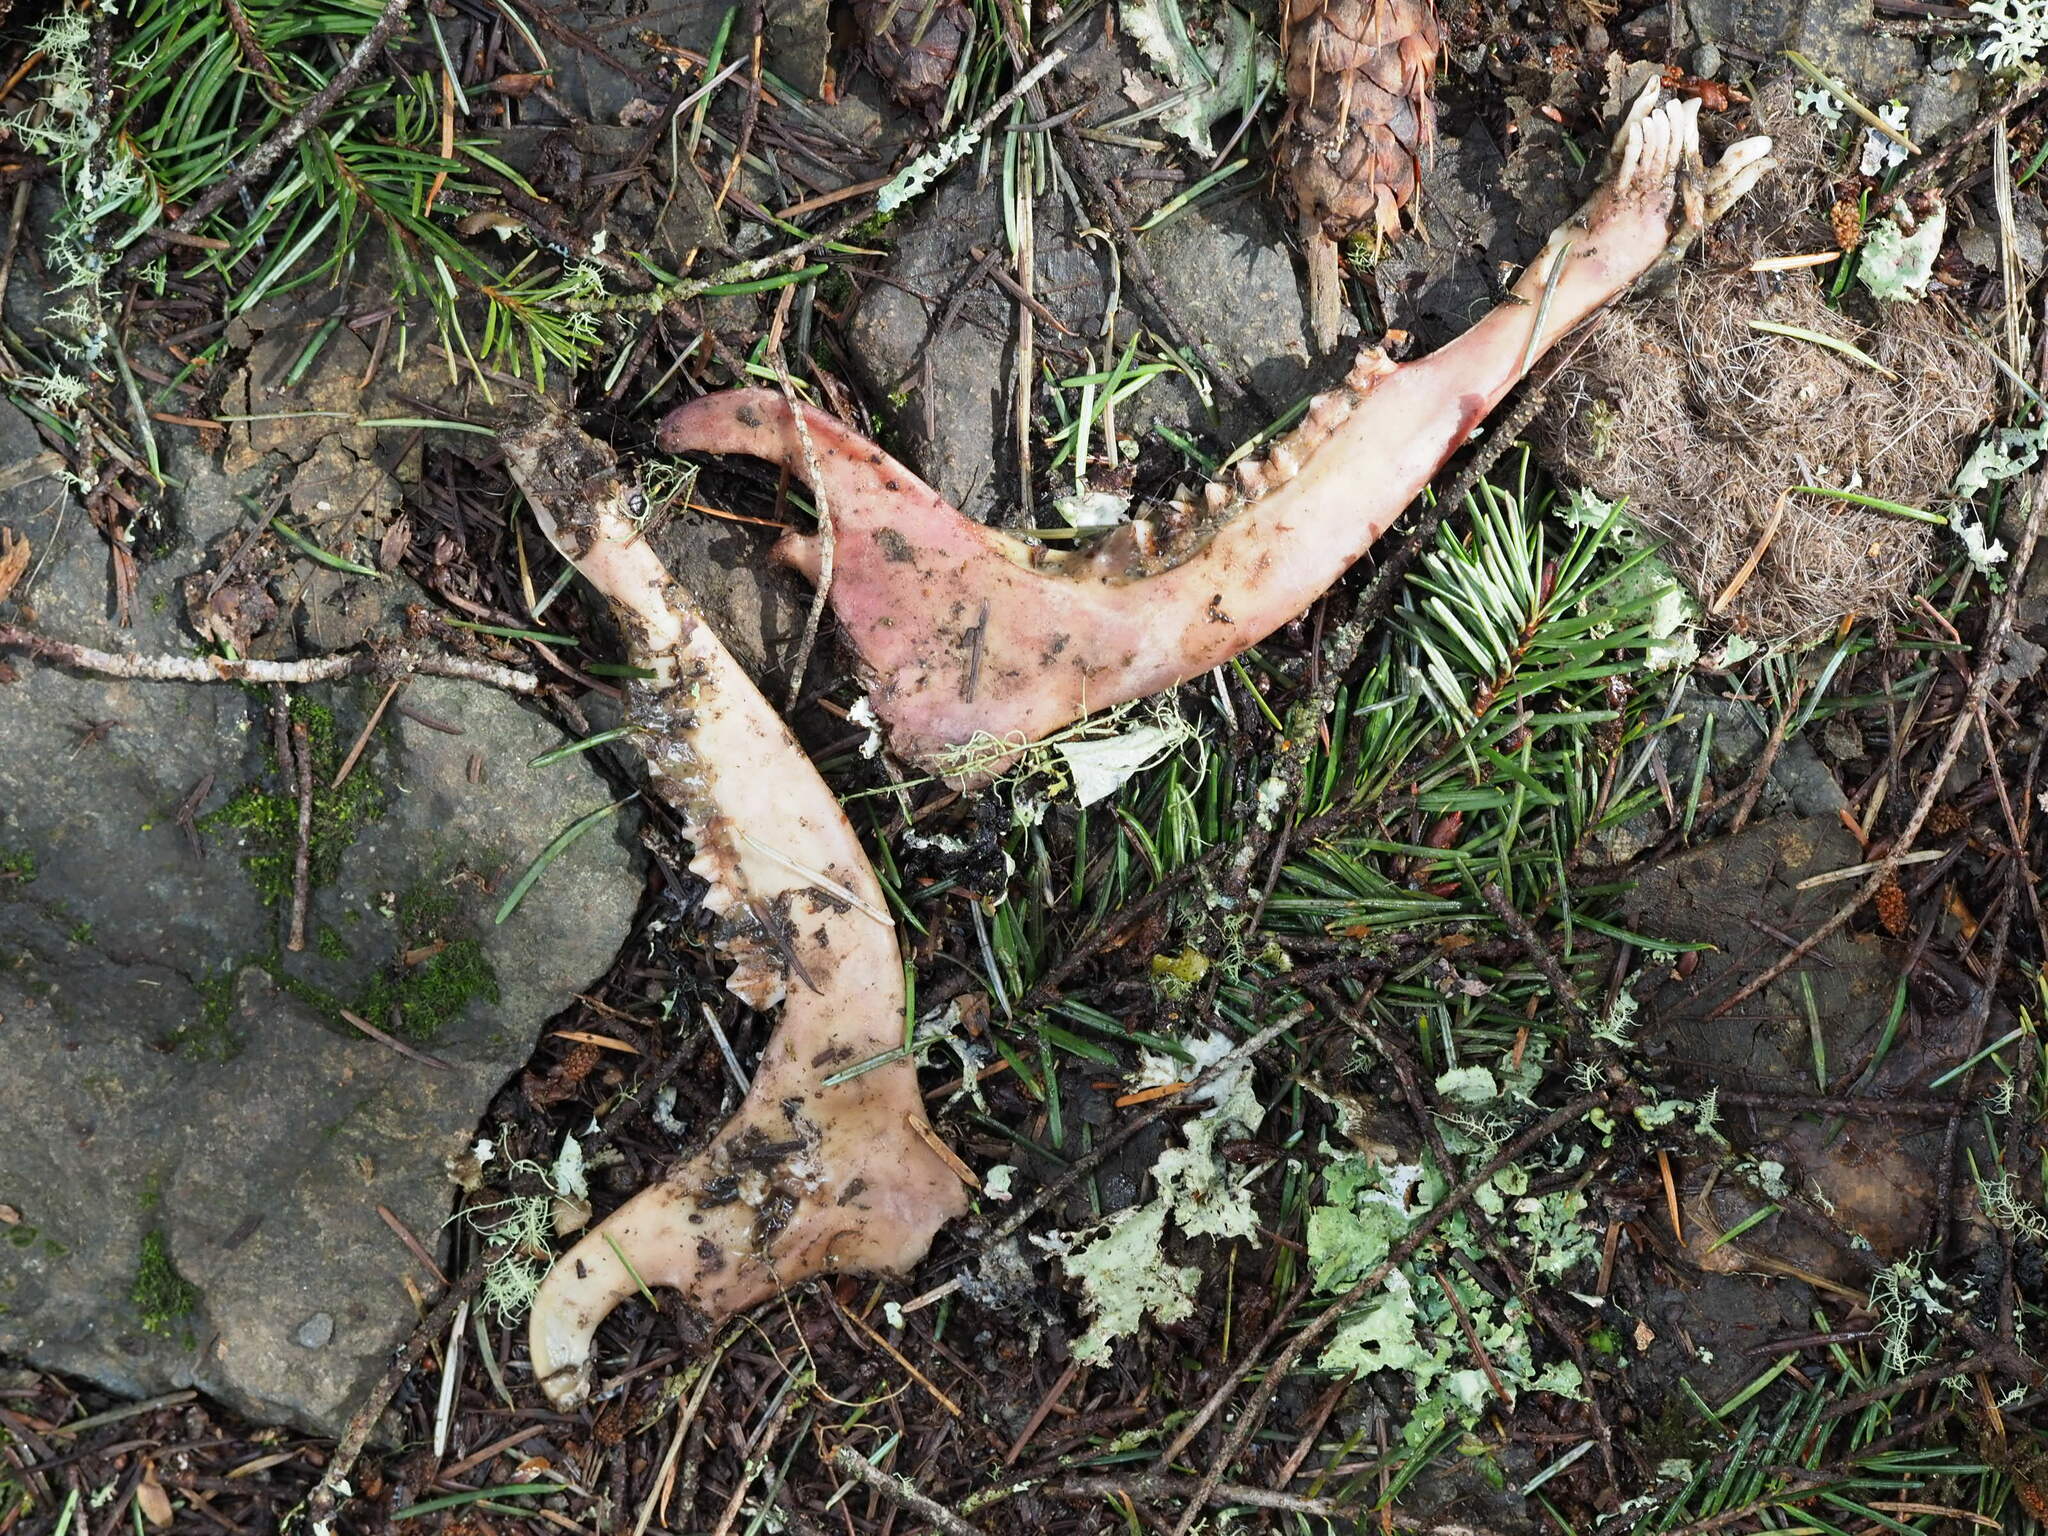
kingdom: Animalia
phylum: Chordata
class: Mammalia
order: Artiodactyla
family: Cervidae
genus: Odocoileus
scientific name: Odocoileus hemionus
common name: Mule deer
